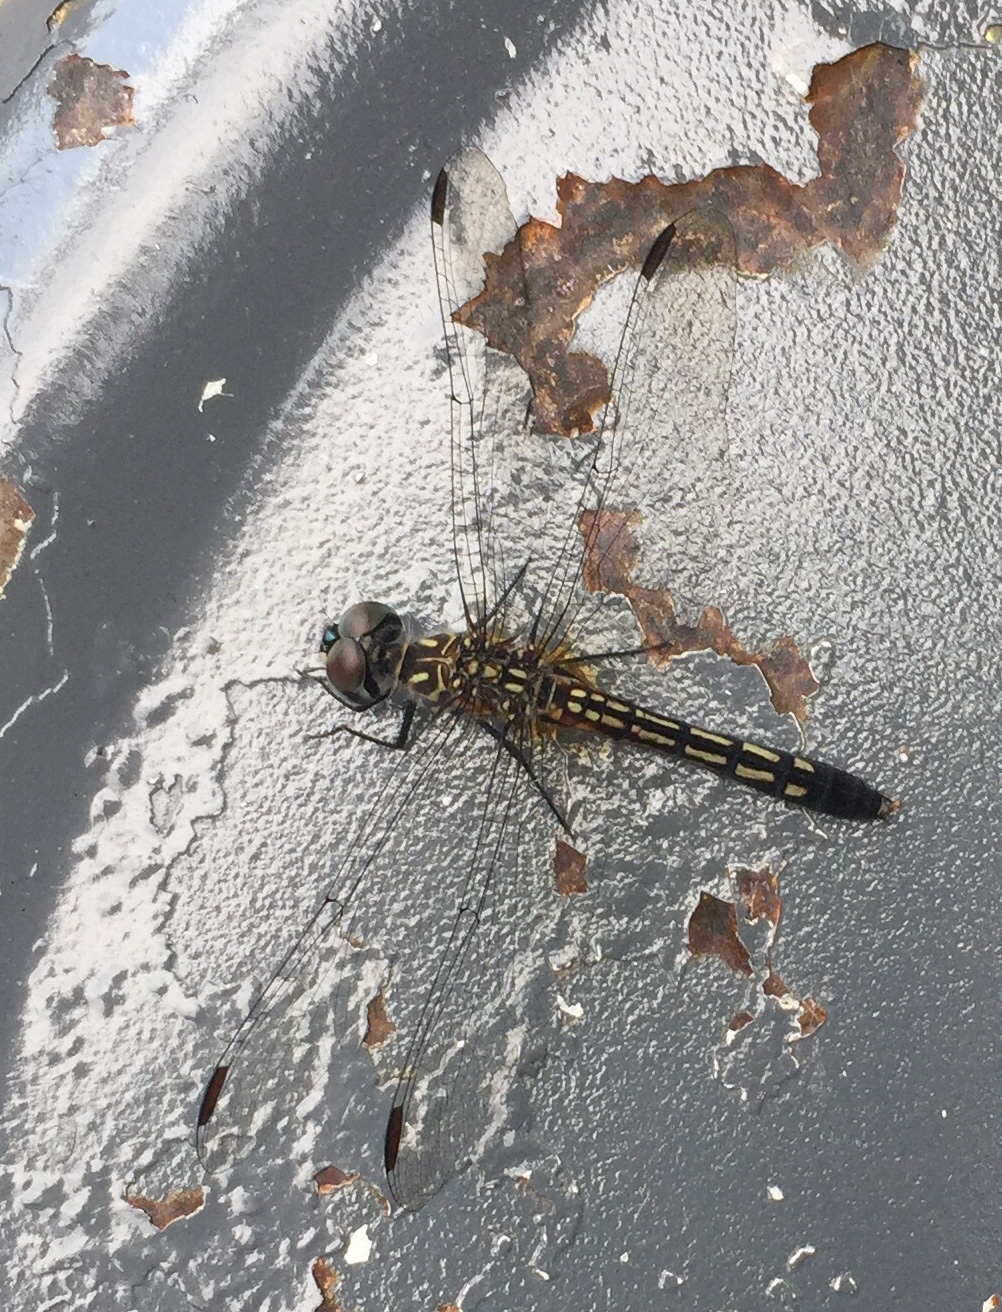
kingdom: Animalia
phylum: Arthropoda
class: Insecta
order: Odonata
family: Libellulidae
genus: Pachydiplax
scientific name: Pachydiplax longipennis
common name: Blue dasher
